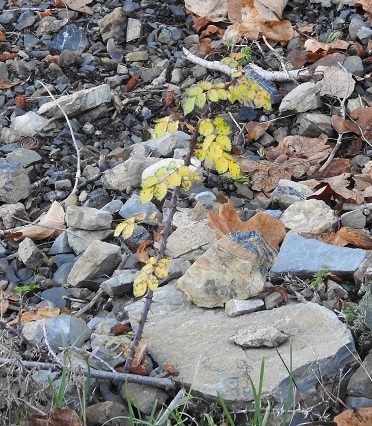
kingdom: Plantae
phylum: Tracheophyta
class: Magnoliopsida
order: Rosales
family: Rosaceae
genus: Rosa
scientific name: Rosa pulverulenta
